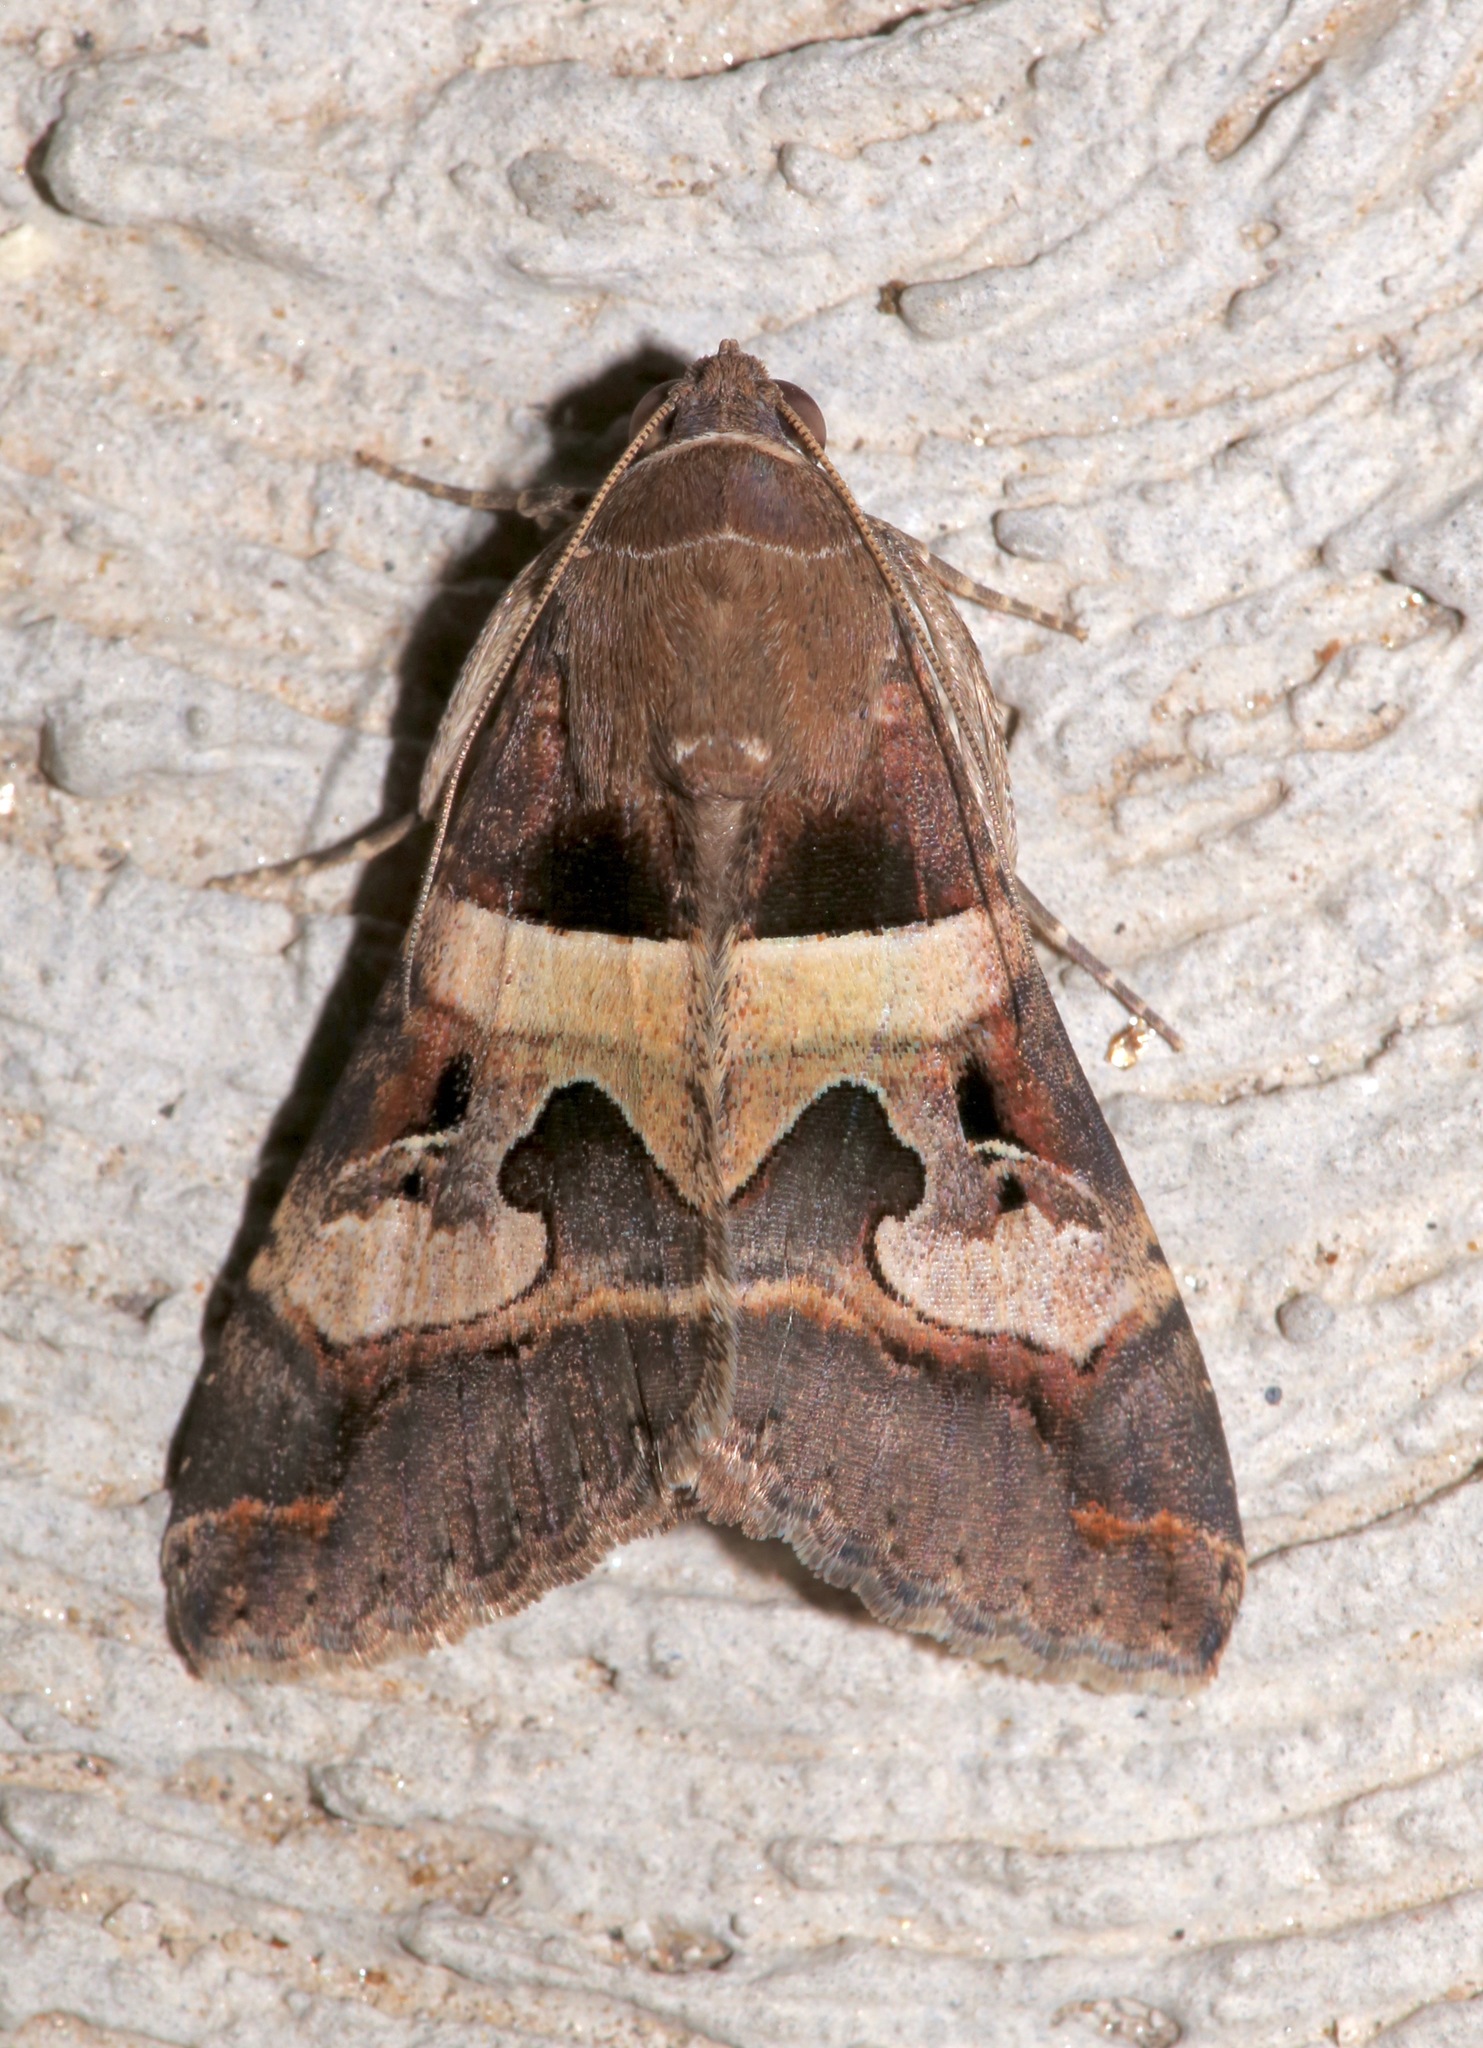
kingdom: Animalia
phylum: Arthropoda
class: Insecta
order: Lepidoptera
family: Erebidae
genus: Melipotis
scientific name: Melipotis perpendicularis
